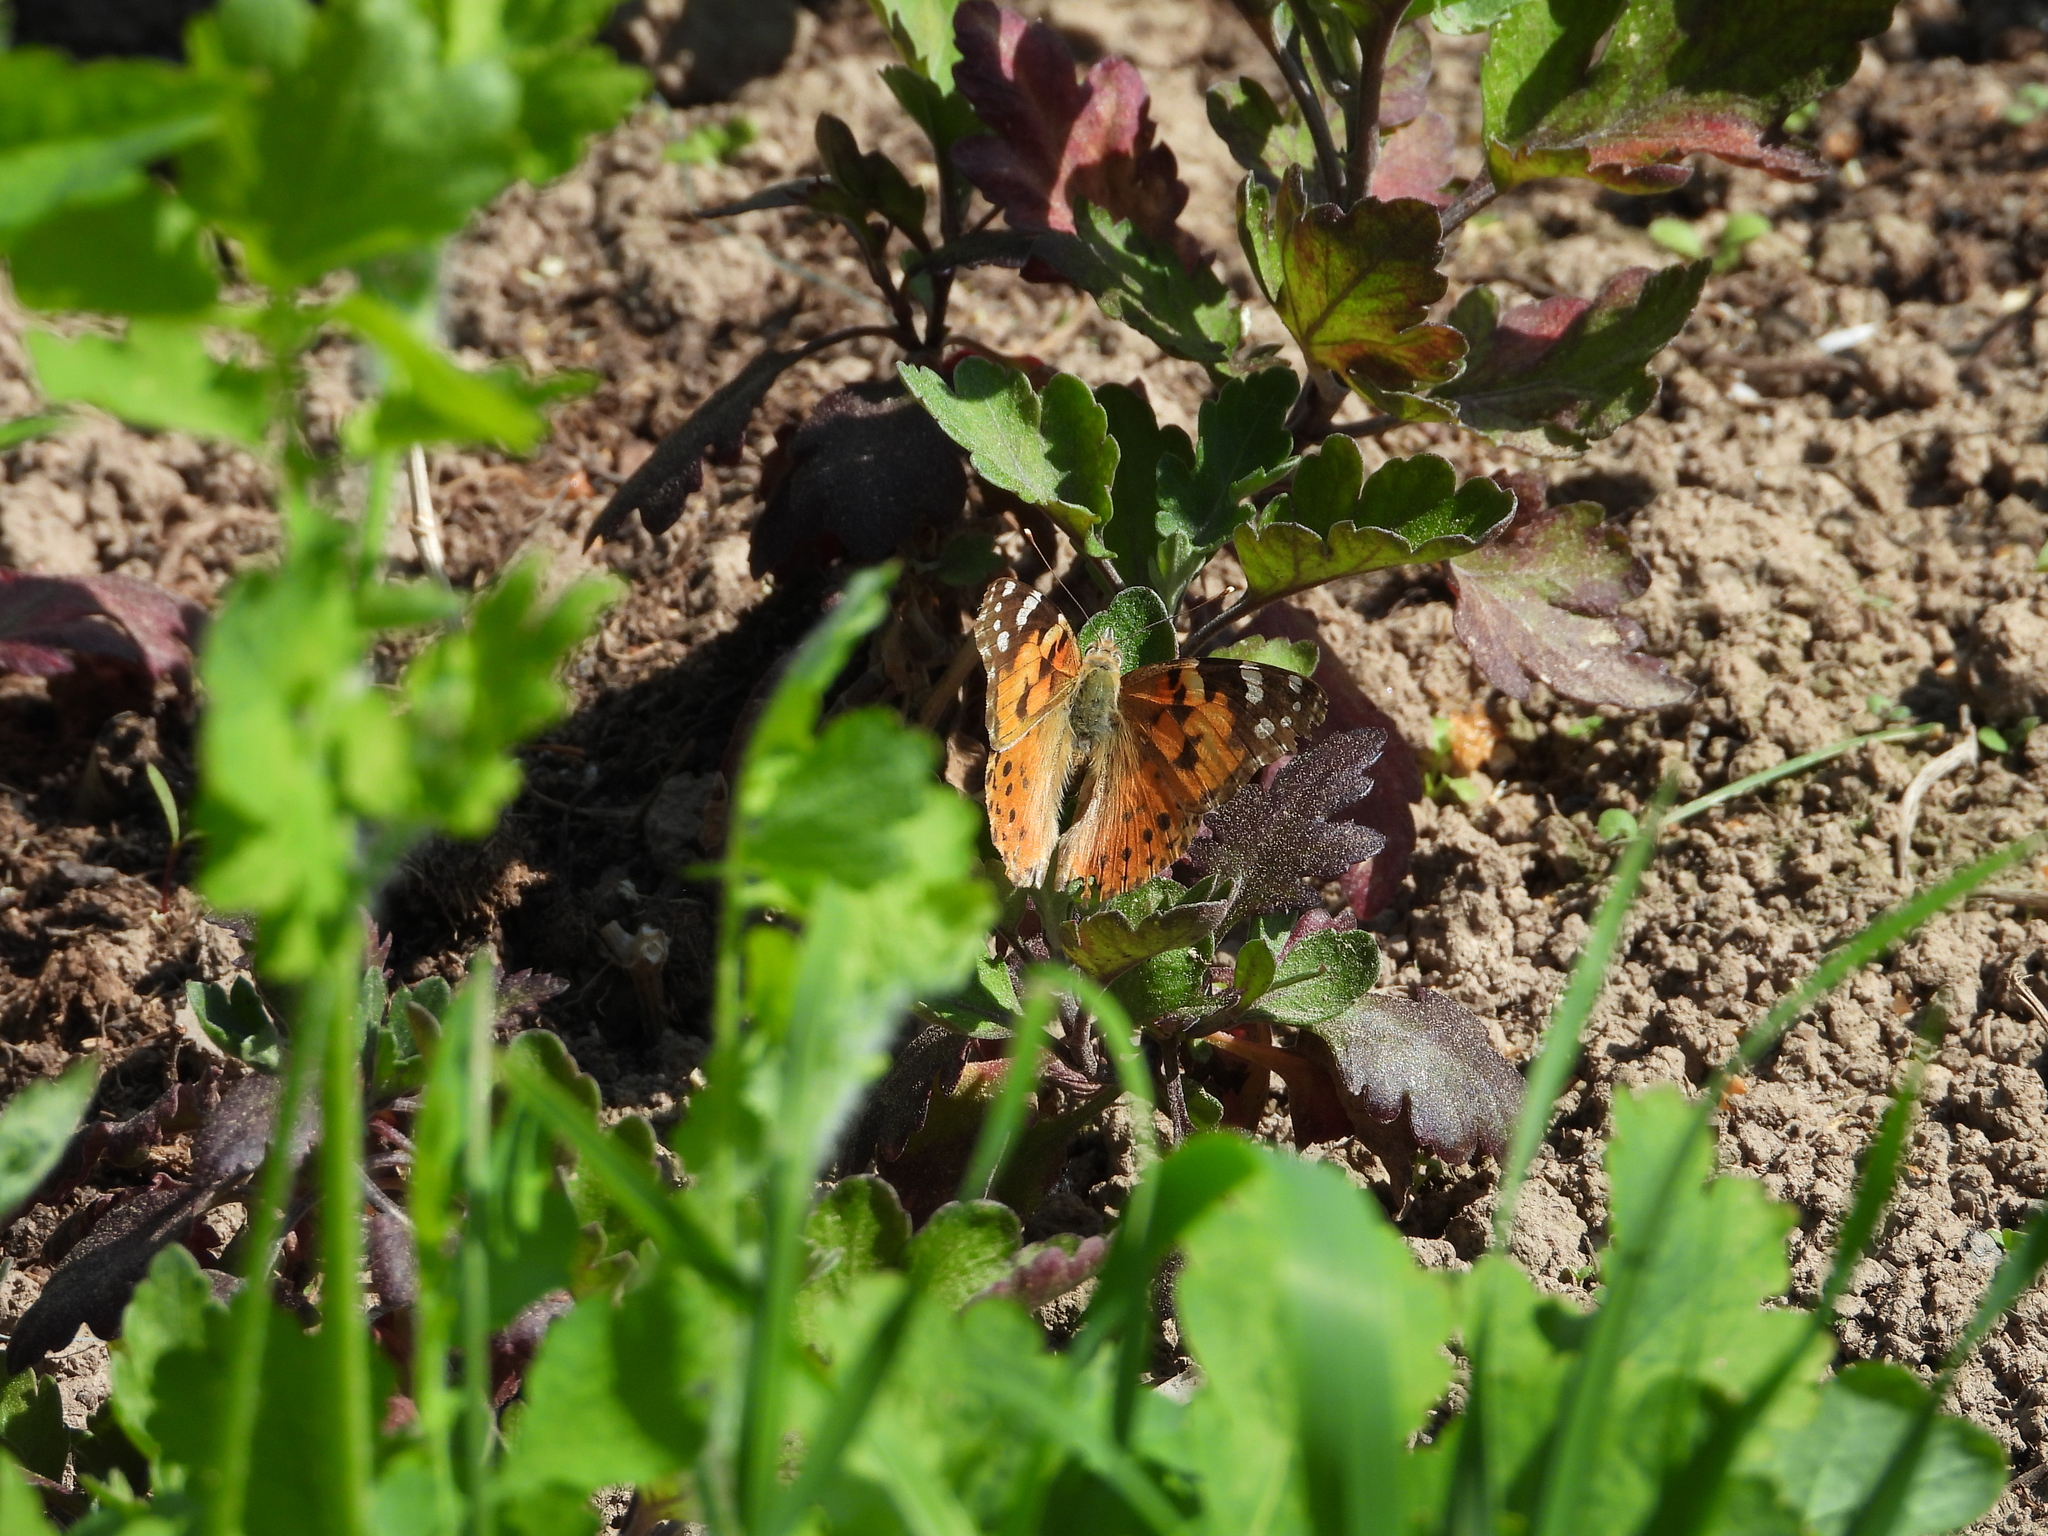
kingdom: Animalia
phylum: Arthropoda
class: Insecta
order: Lepidoptera
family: Nymphalidae
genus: Vanessa
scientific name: Vanessa cardui
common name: Painted lady
